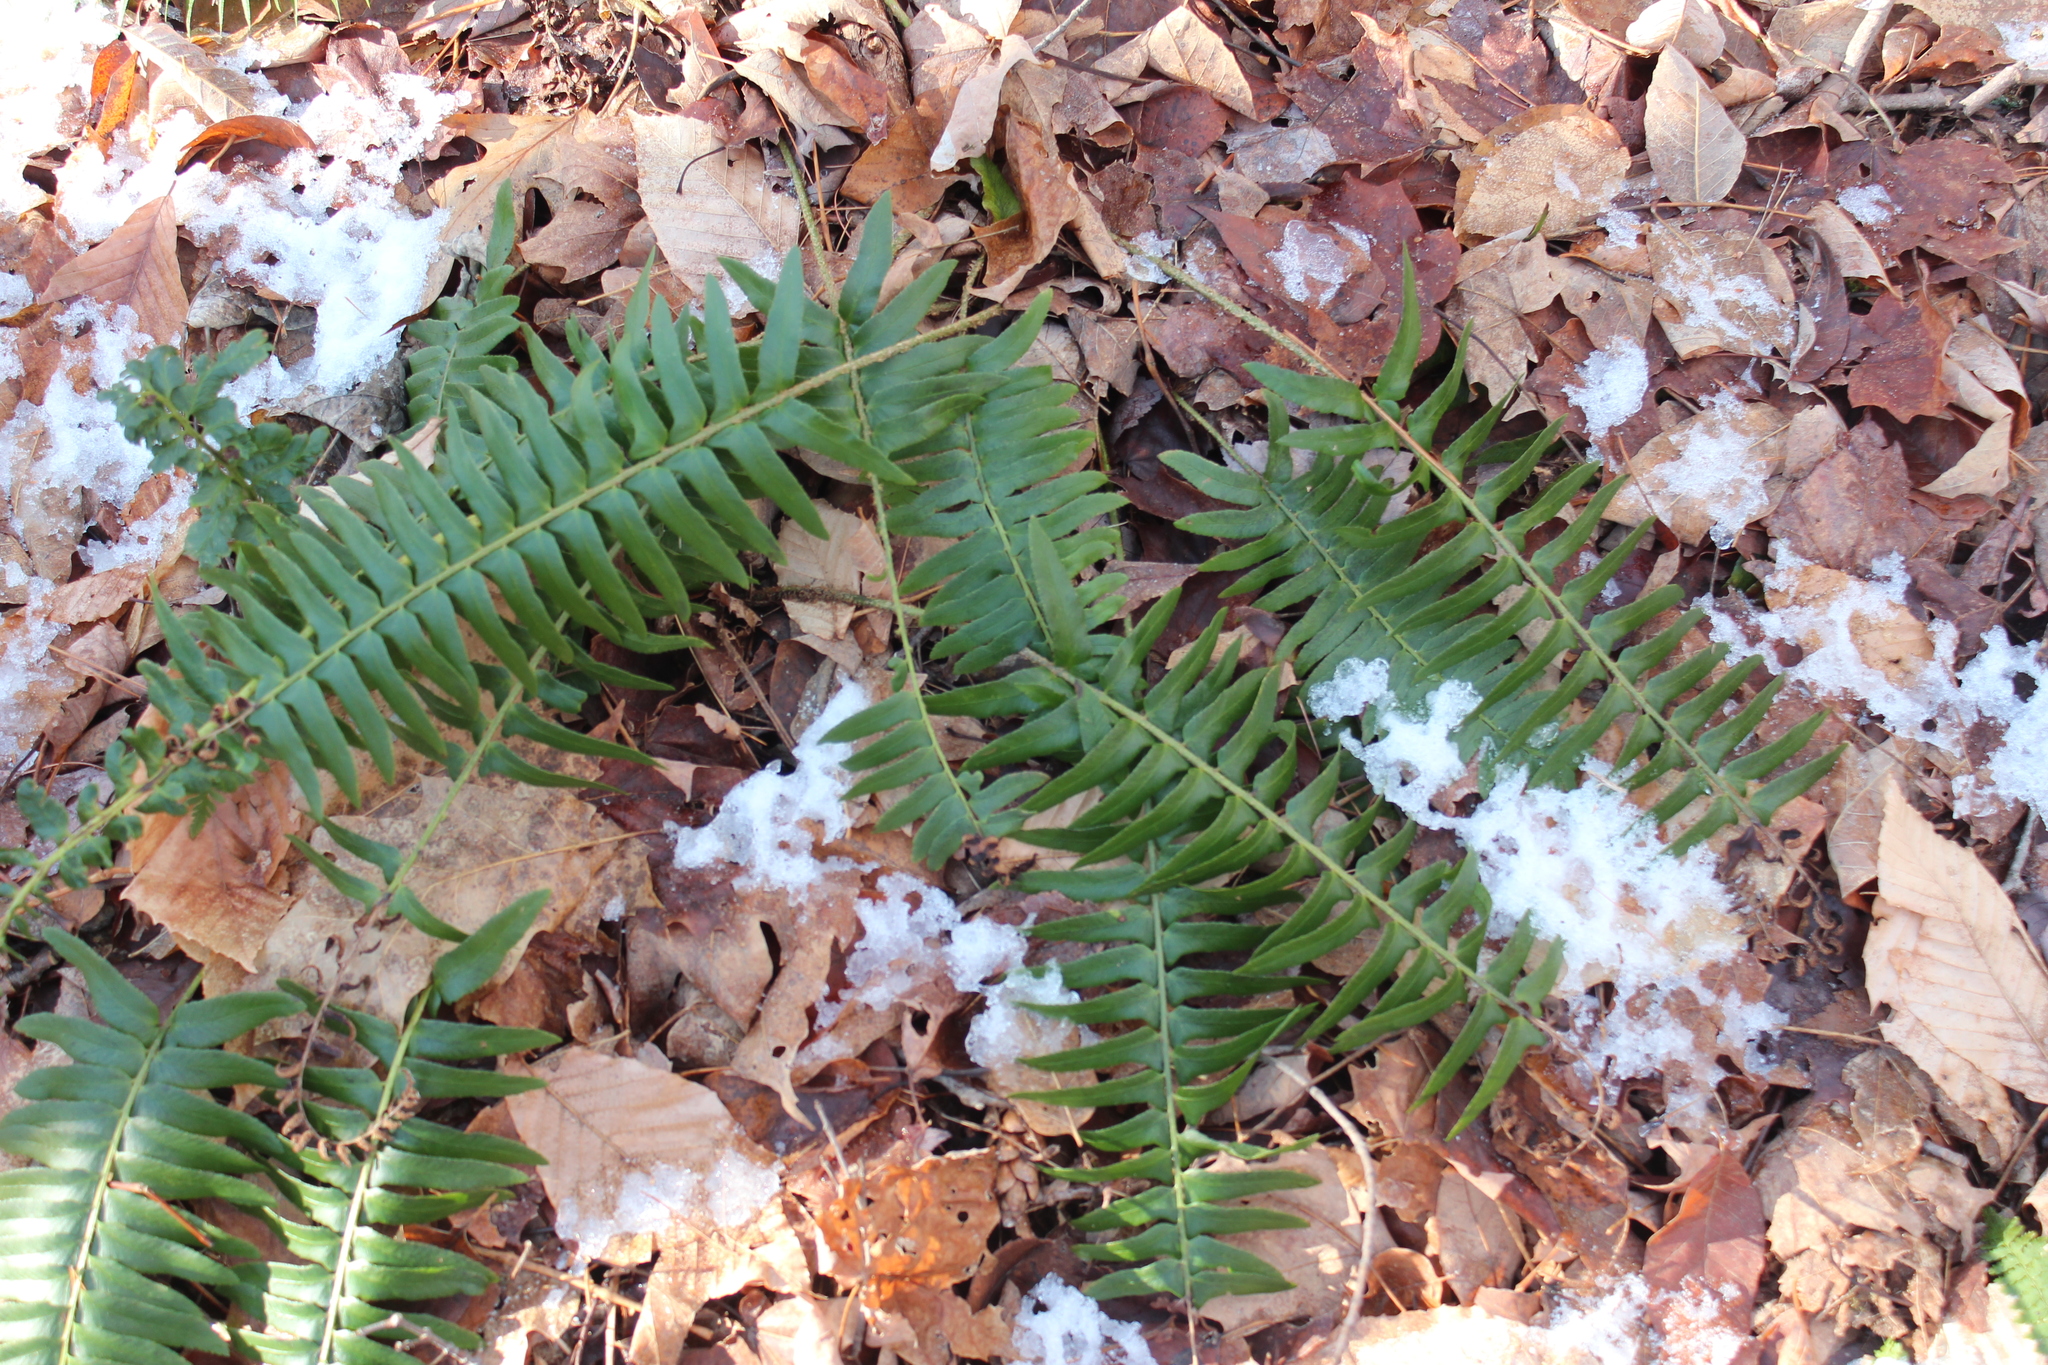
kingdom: Plantae
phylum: Tracheophyta
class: Polypodiopsida
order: Polypodiales
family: Dryopteridaceae
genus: Polystichum
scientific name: Polystichum acrostichoides
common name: Christmas fern
